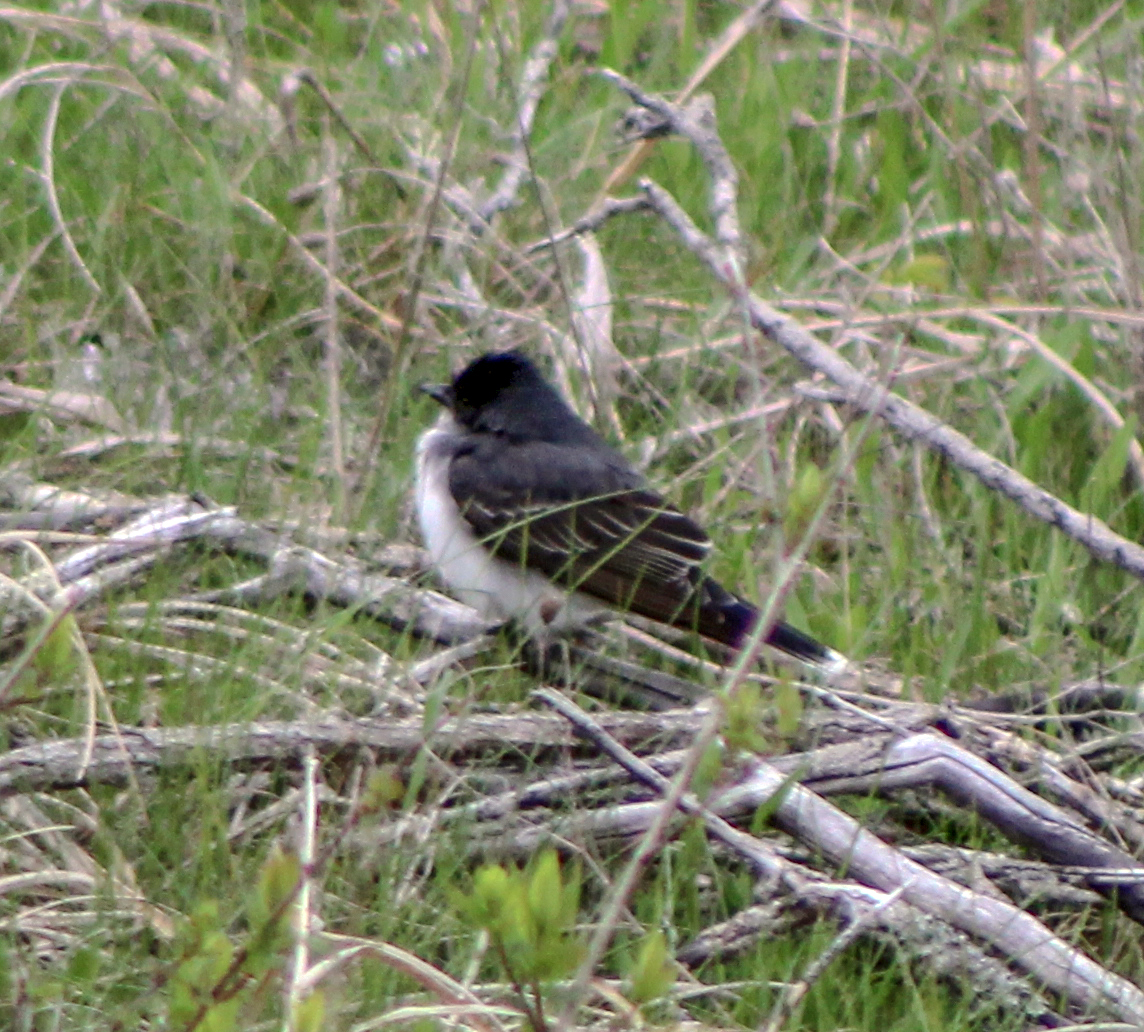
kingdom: Animalia
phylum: Chordata
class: Aves
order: Passeriformes
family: Tyrannidae
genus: Tyrannus
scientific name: Tyrannus tyrannus
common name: Eastern kingbird
